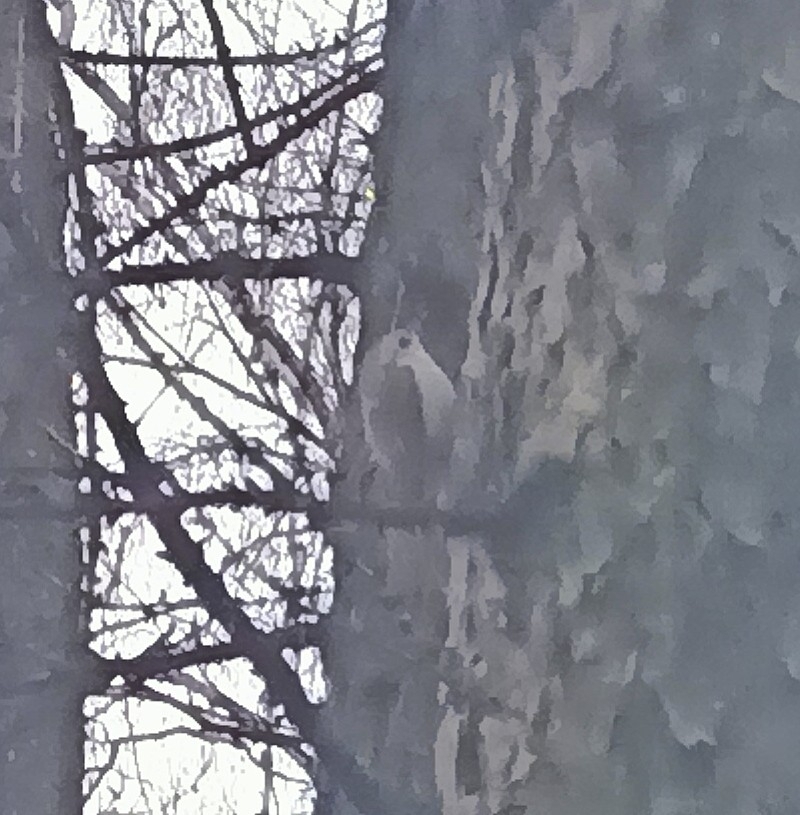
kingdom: Animalia
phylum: Chordata
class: Aves
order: Passeriformes
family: Certhiidae
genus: Certhia
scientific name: Certhia familiaris
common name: Eurasian treecreeper
